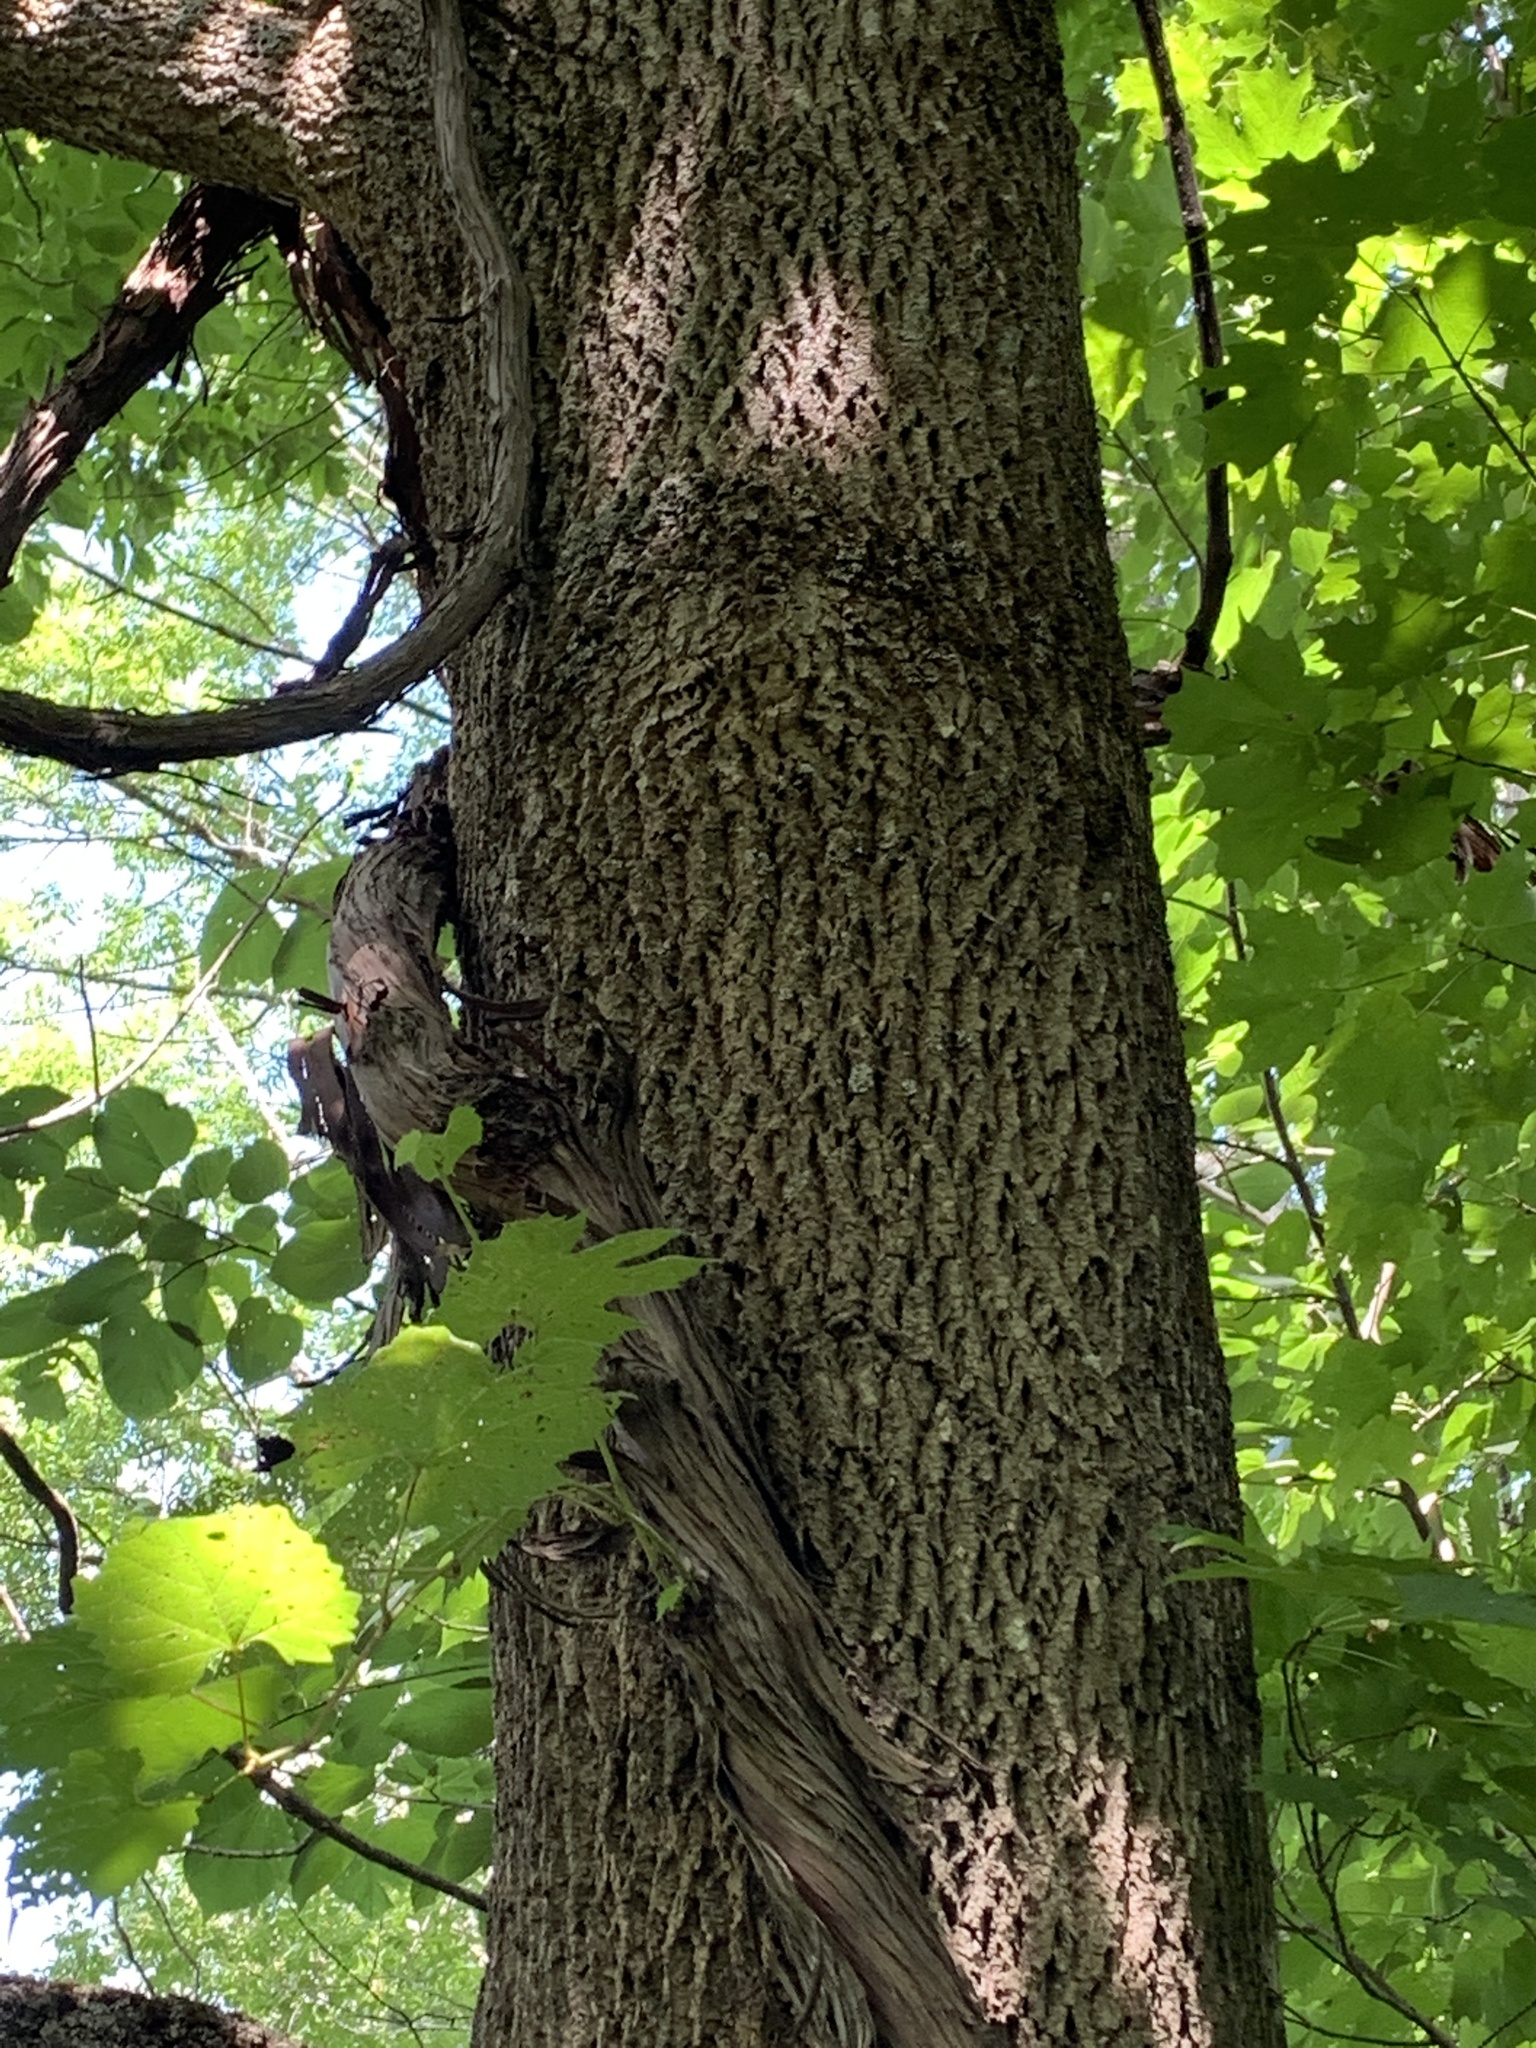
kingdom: Plantae
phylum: Tracheophyta
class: Magnoliopsida
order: Lamiales
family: Oleaceae
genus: Fraxinus
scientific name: Fraxinus americana
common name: White ash
